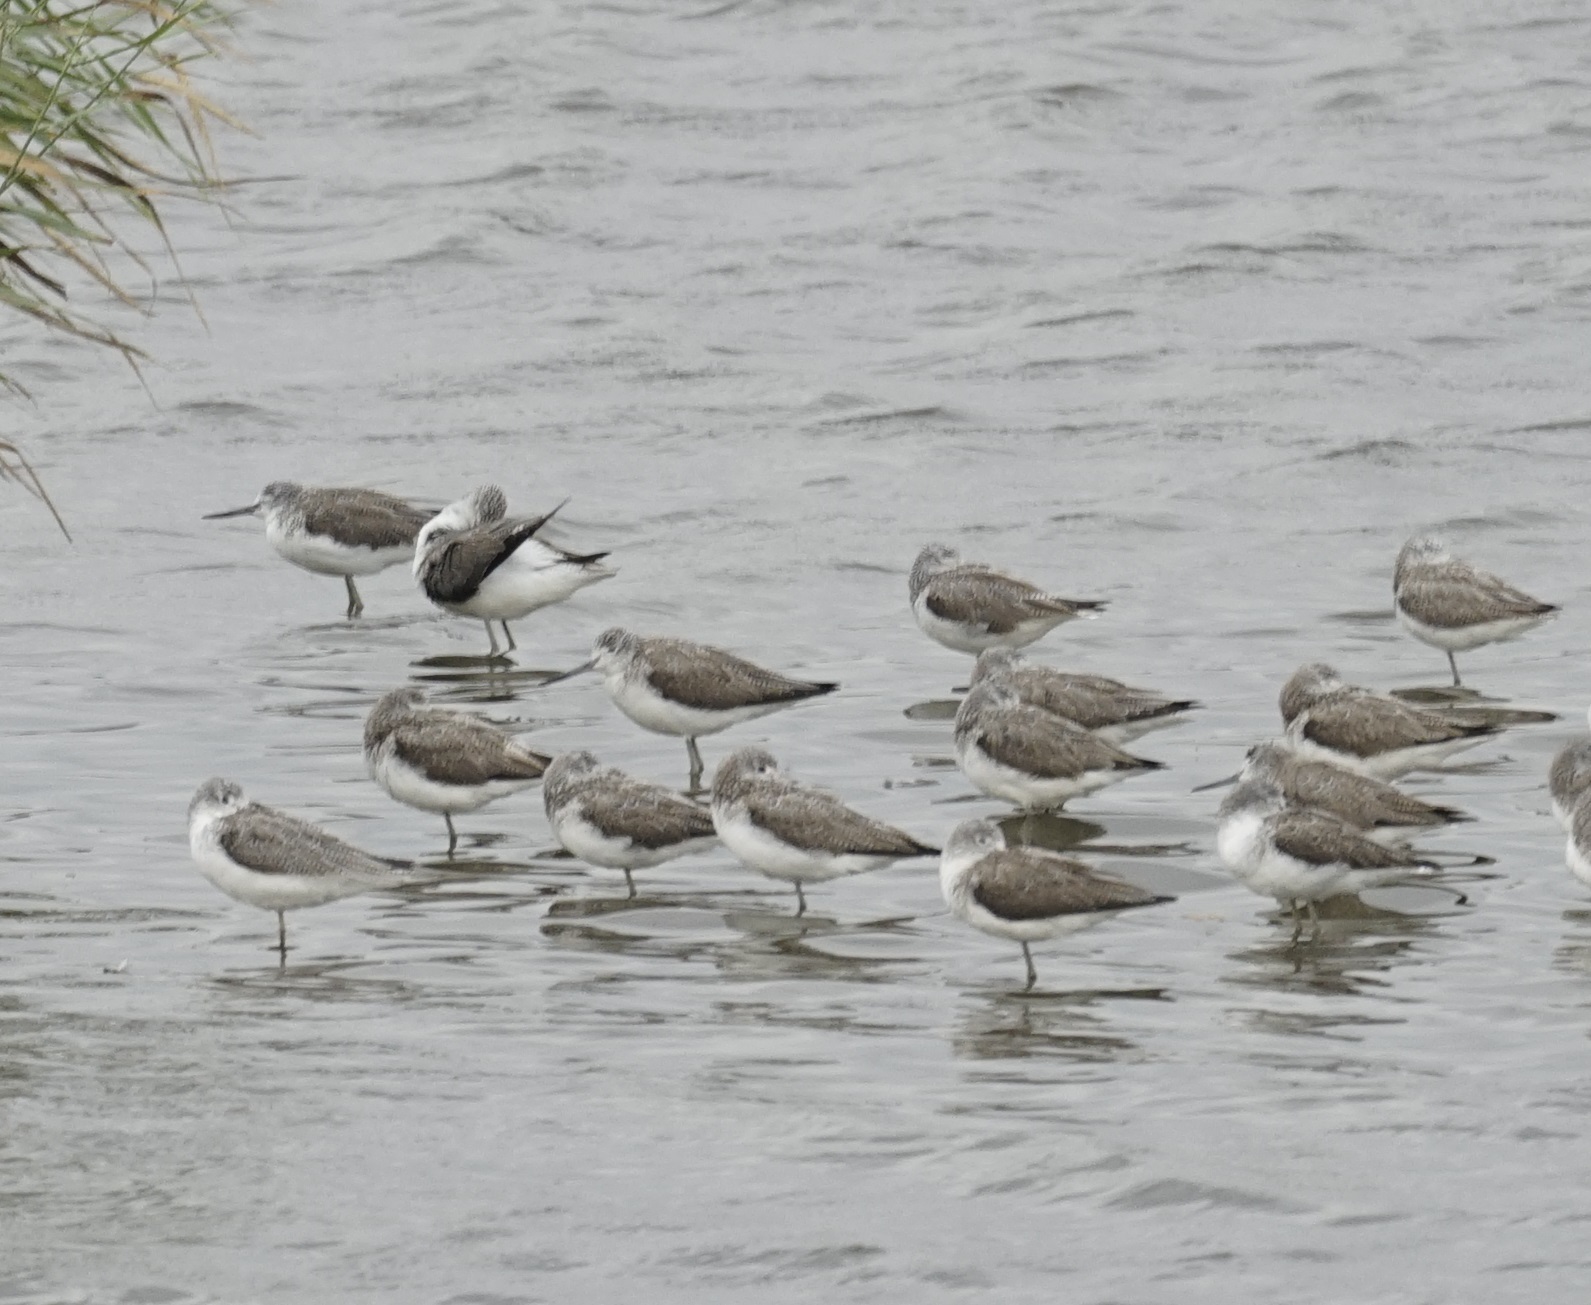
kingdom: Animalia
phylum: Chordata
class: Aves
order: Charadriiformes
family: Scolopacidae
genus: Tringa
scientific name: Tringa nebularia
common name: Common greenshank
